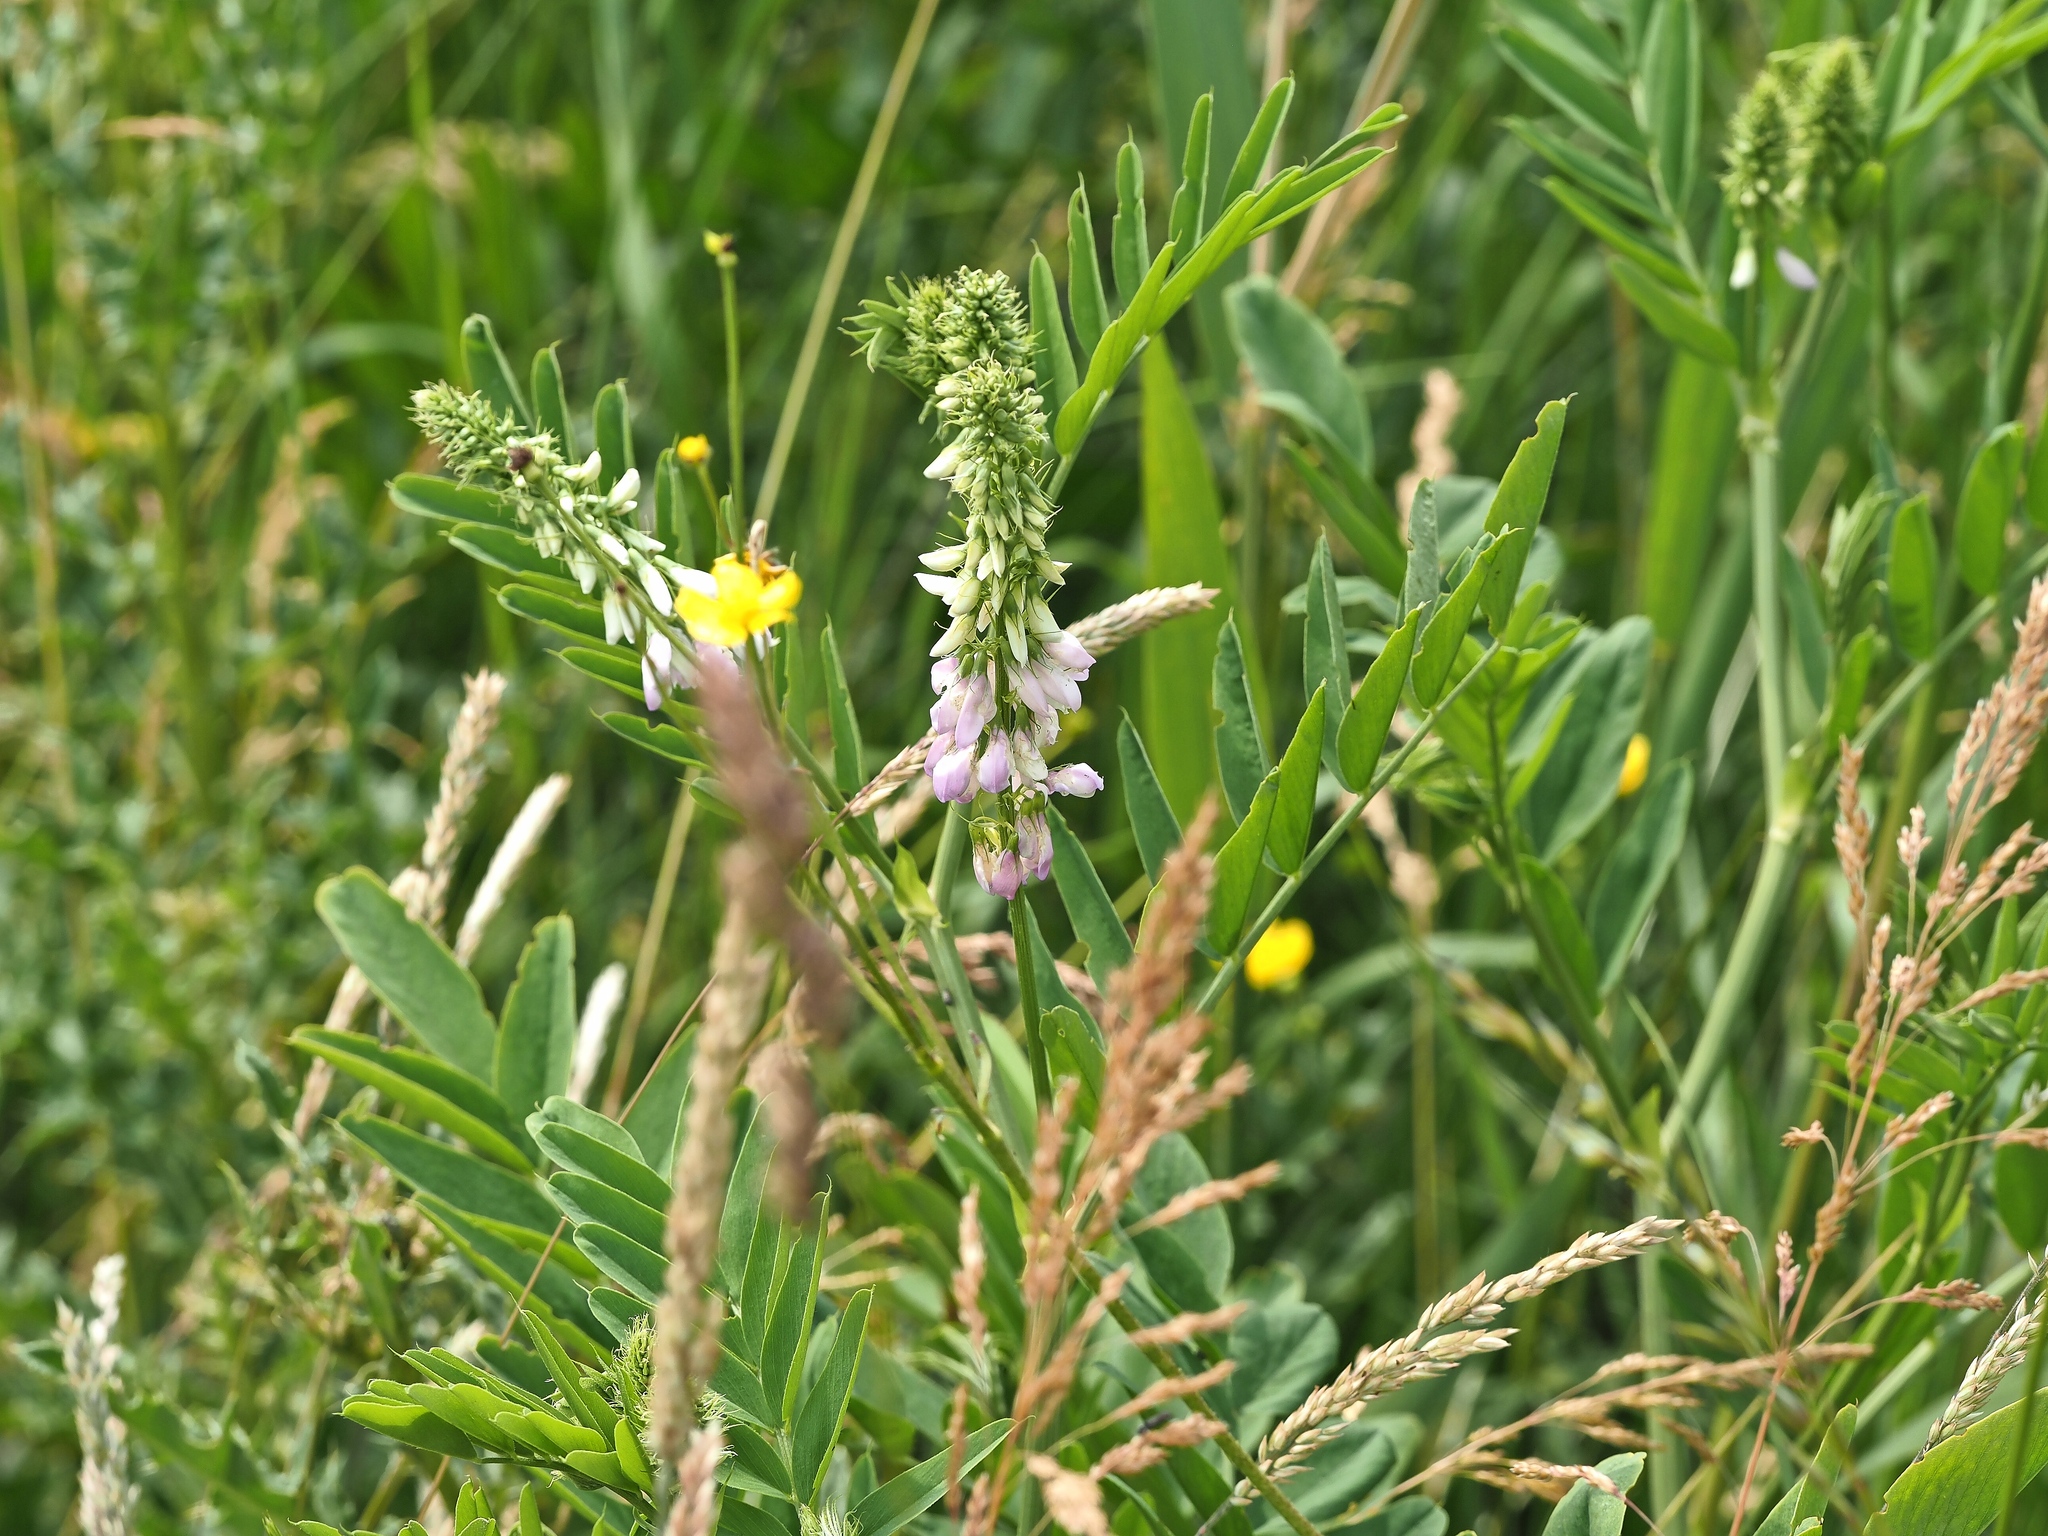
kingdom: Plantae
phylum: Tracheophyta
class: Magnoliopsida
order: Fabales
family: Fabaceae
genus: Galega
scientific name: Galega officinalis
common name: Goat's-rue
